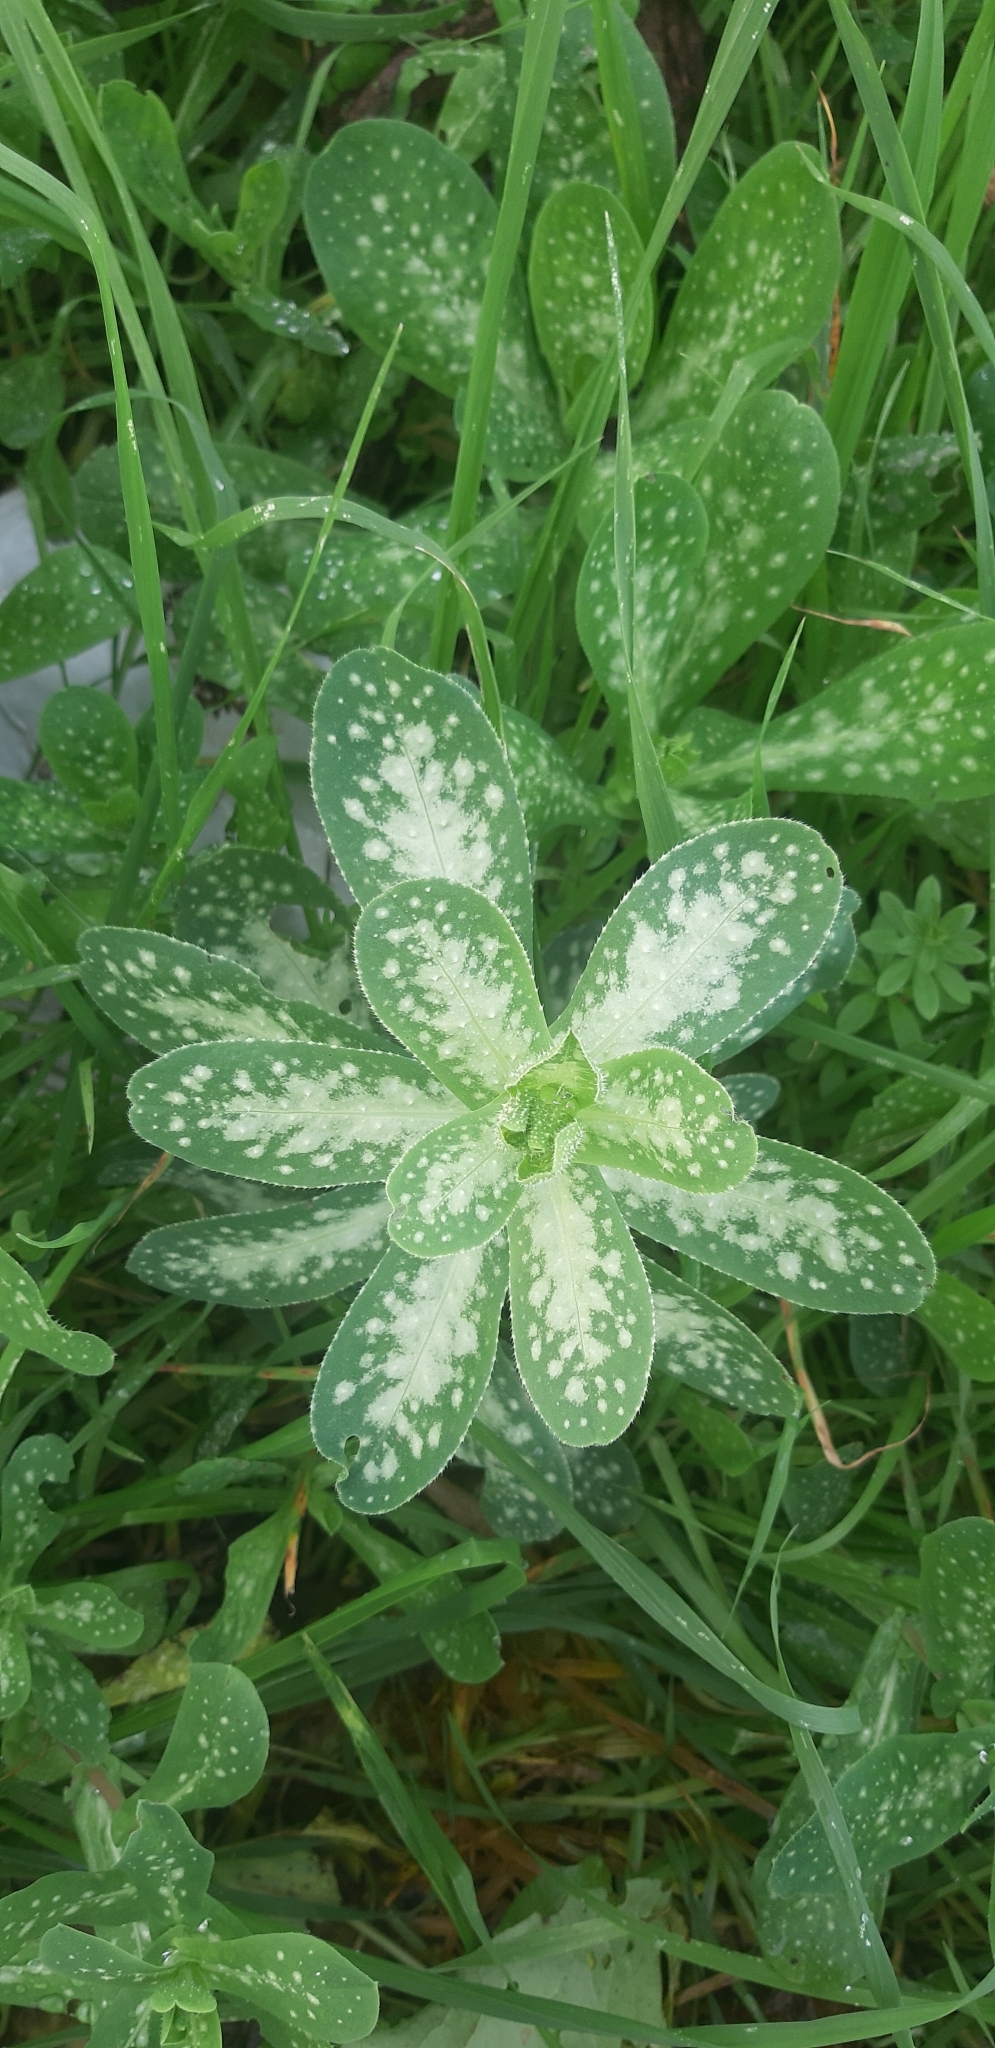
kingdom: Plantae
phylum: Tracheophyta
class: Magnoliopsida
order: Boraginales
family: Boraginaceae
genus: Cerinthe
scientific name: Cerinthe major
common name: Greater honeywort
